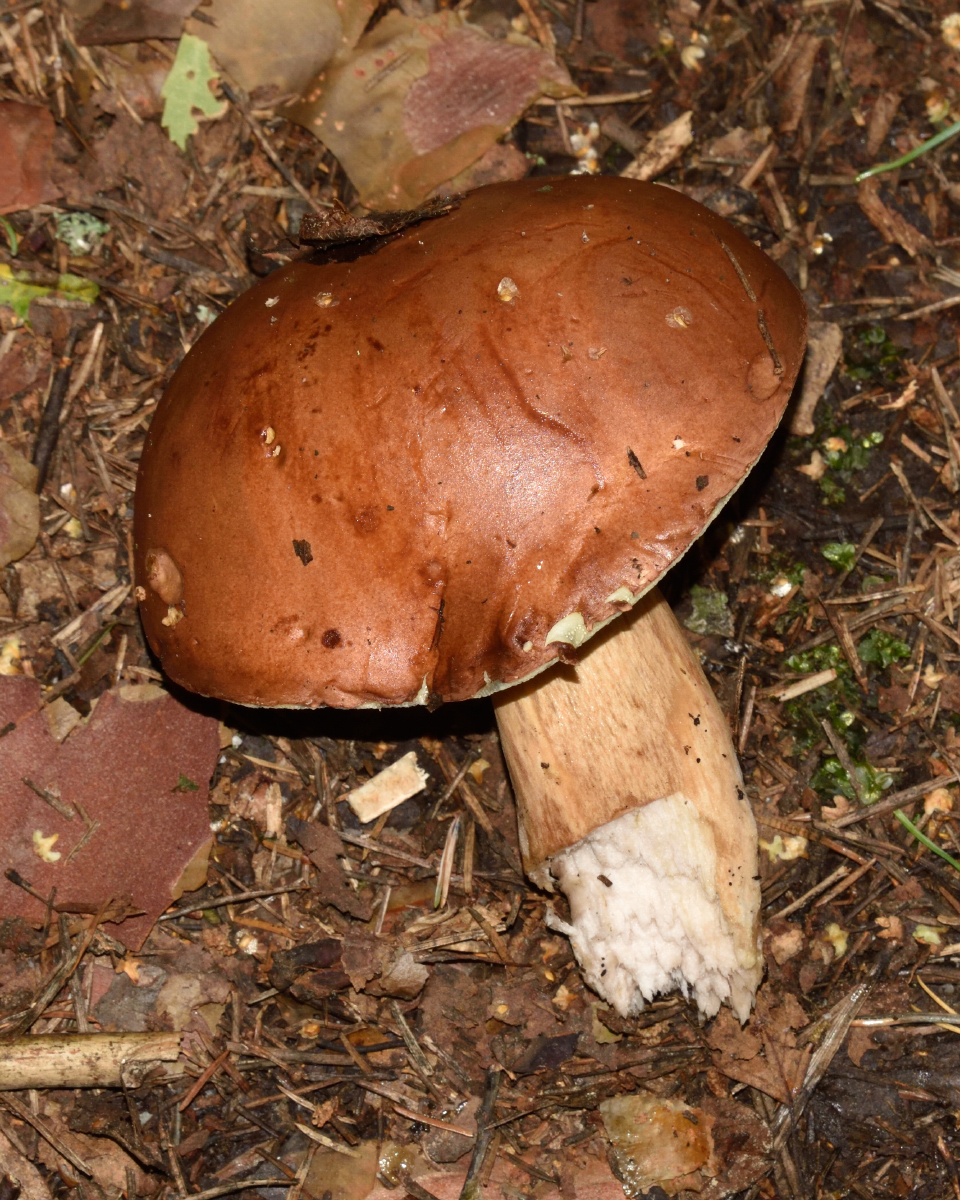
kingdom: Fungi
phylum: Basidiomycota
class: Agaricomycetes
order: Boletales
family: Boletaceae
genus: Imleria
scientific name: Imleria badia
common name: Bay bolete
